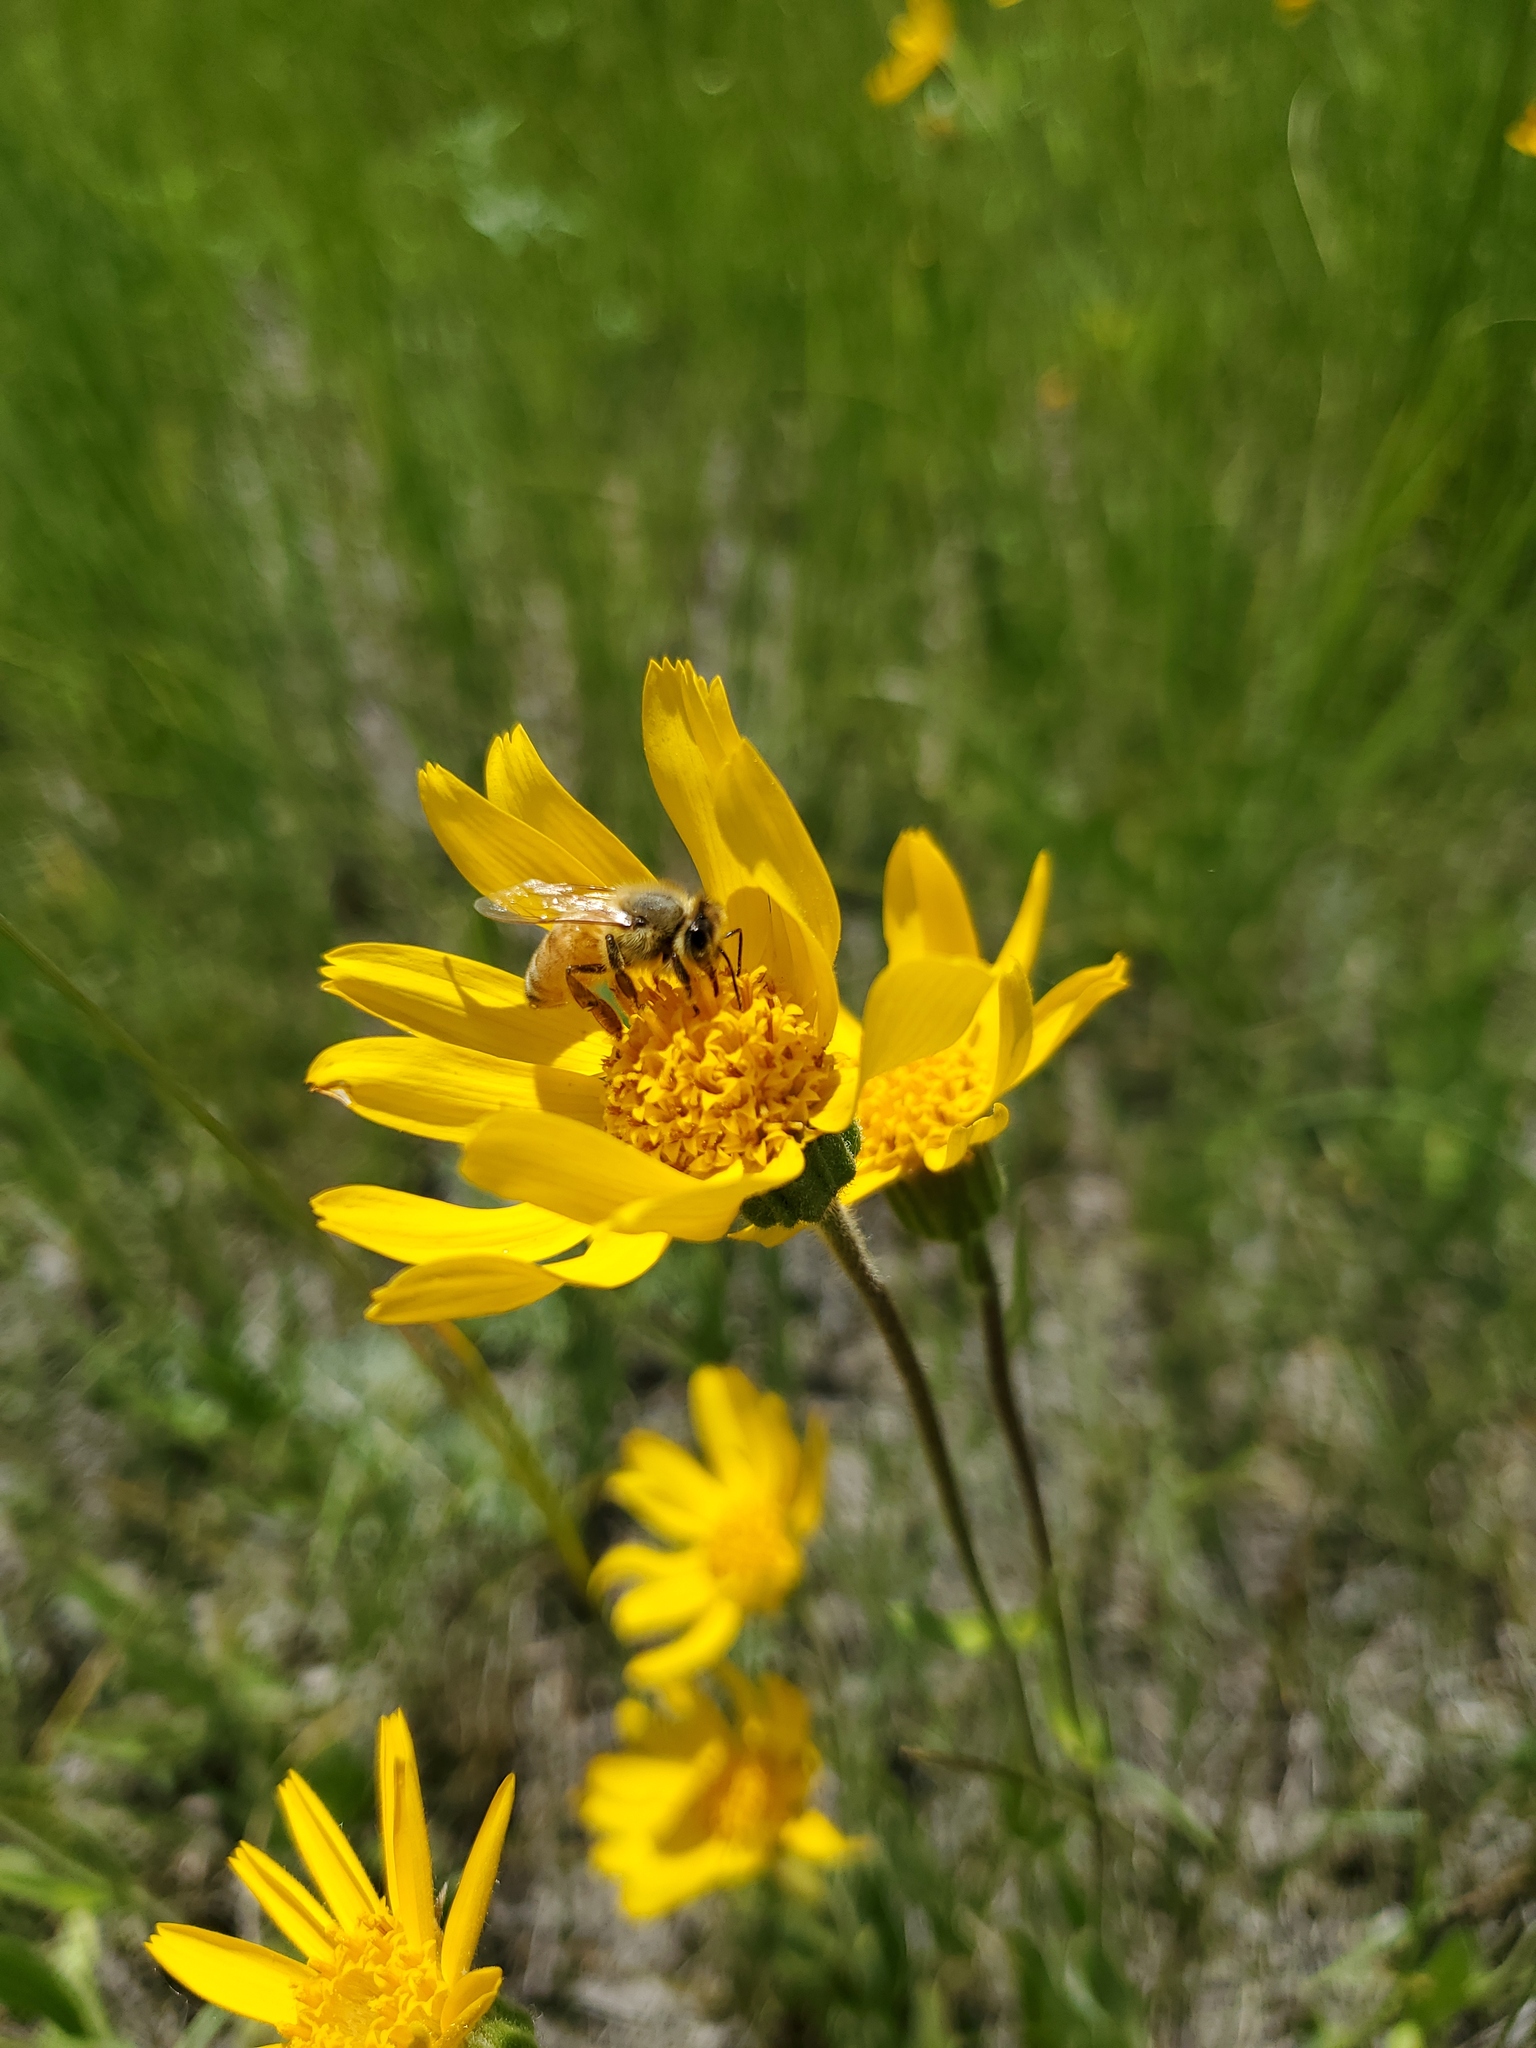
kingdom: Animalia
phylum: Arthropoda
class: Insecta
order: Hymenoptera
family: Apidae
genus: Apis
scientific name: Apis mellifera
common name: Honey bee
